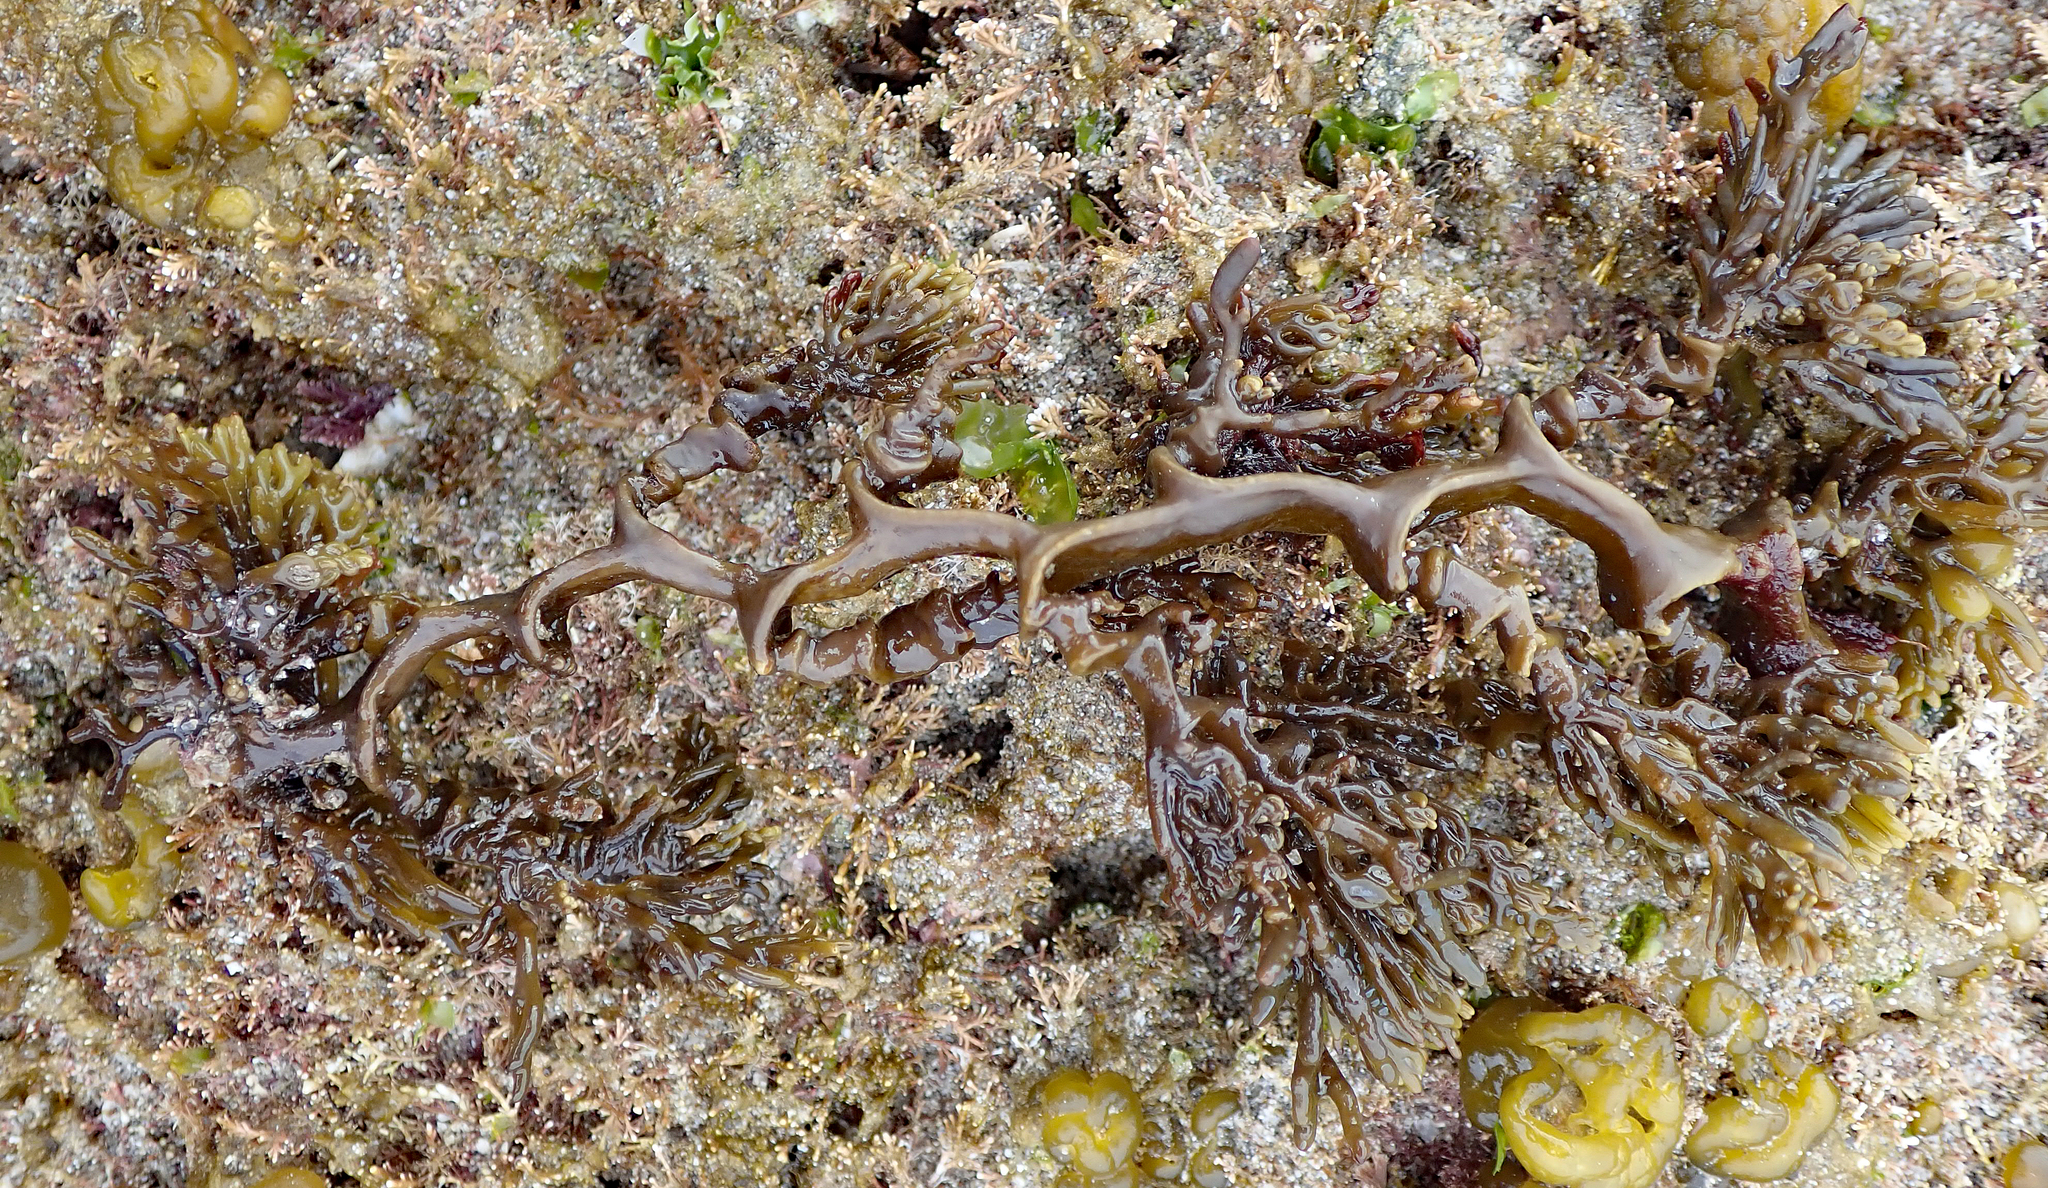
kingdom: Chromista
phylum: Ochrophyta
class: Phaeophyceae
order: Fucales
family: Sargassaceae
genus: Cystophora
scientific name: Cystophora scalaris
